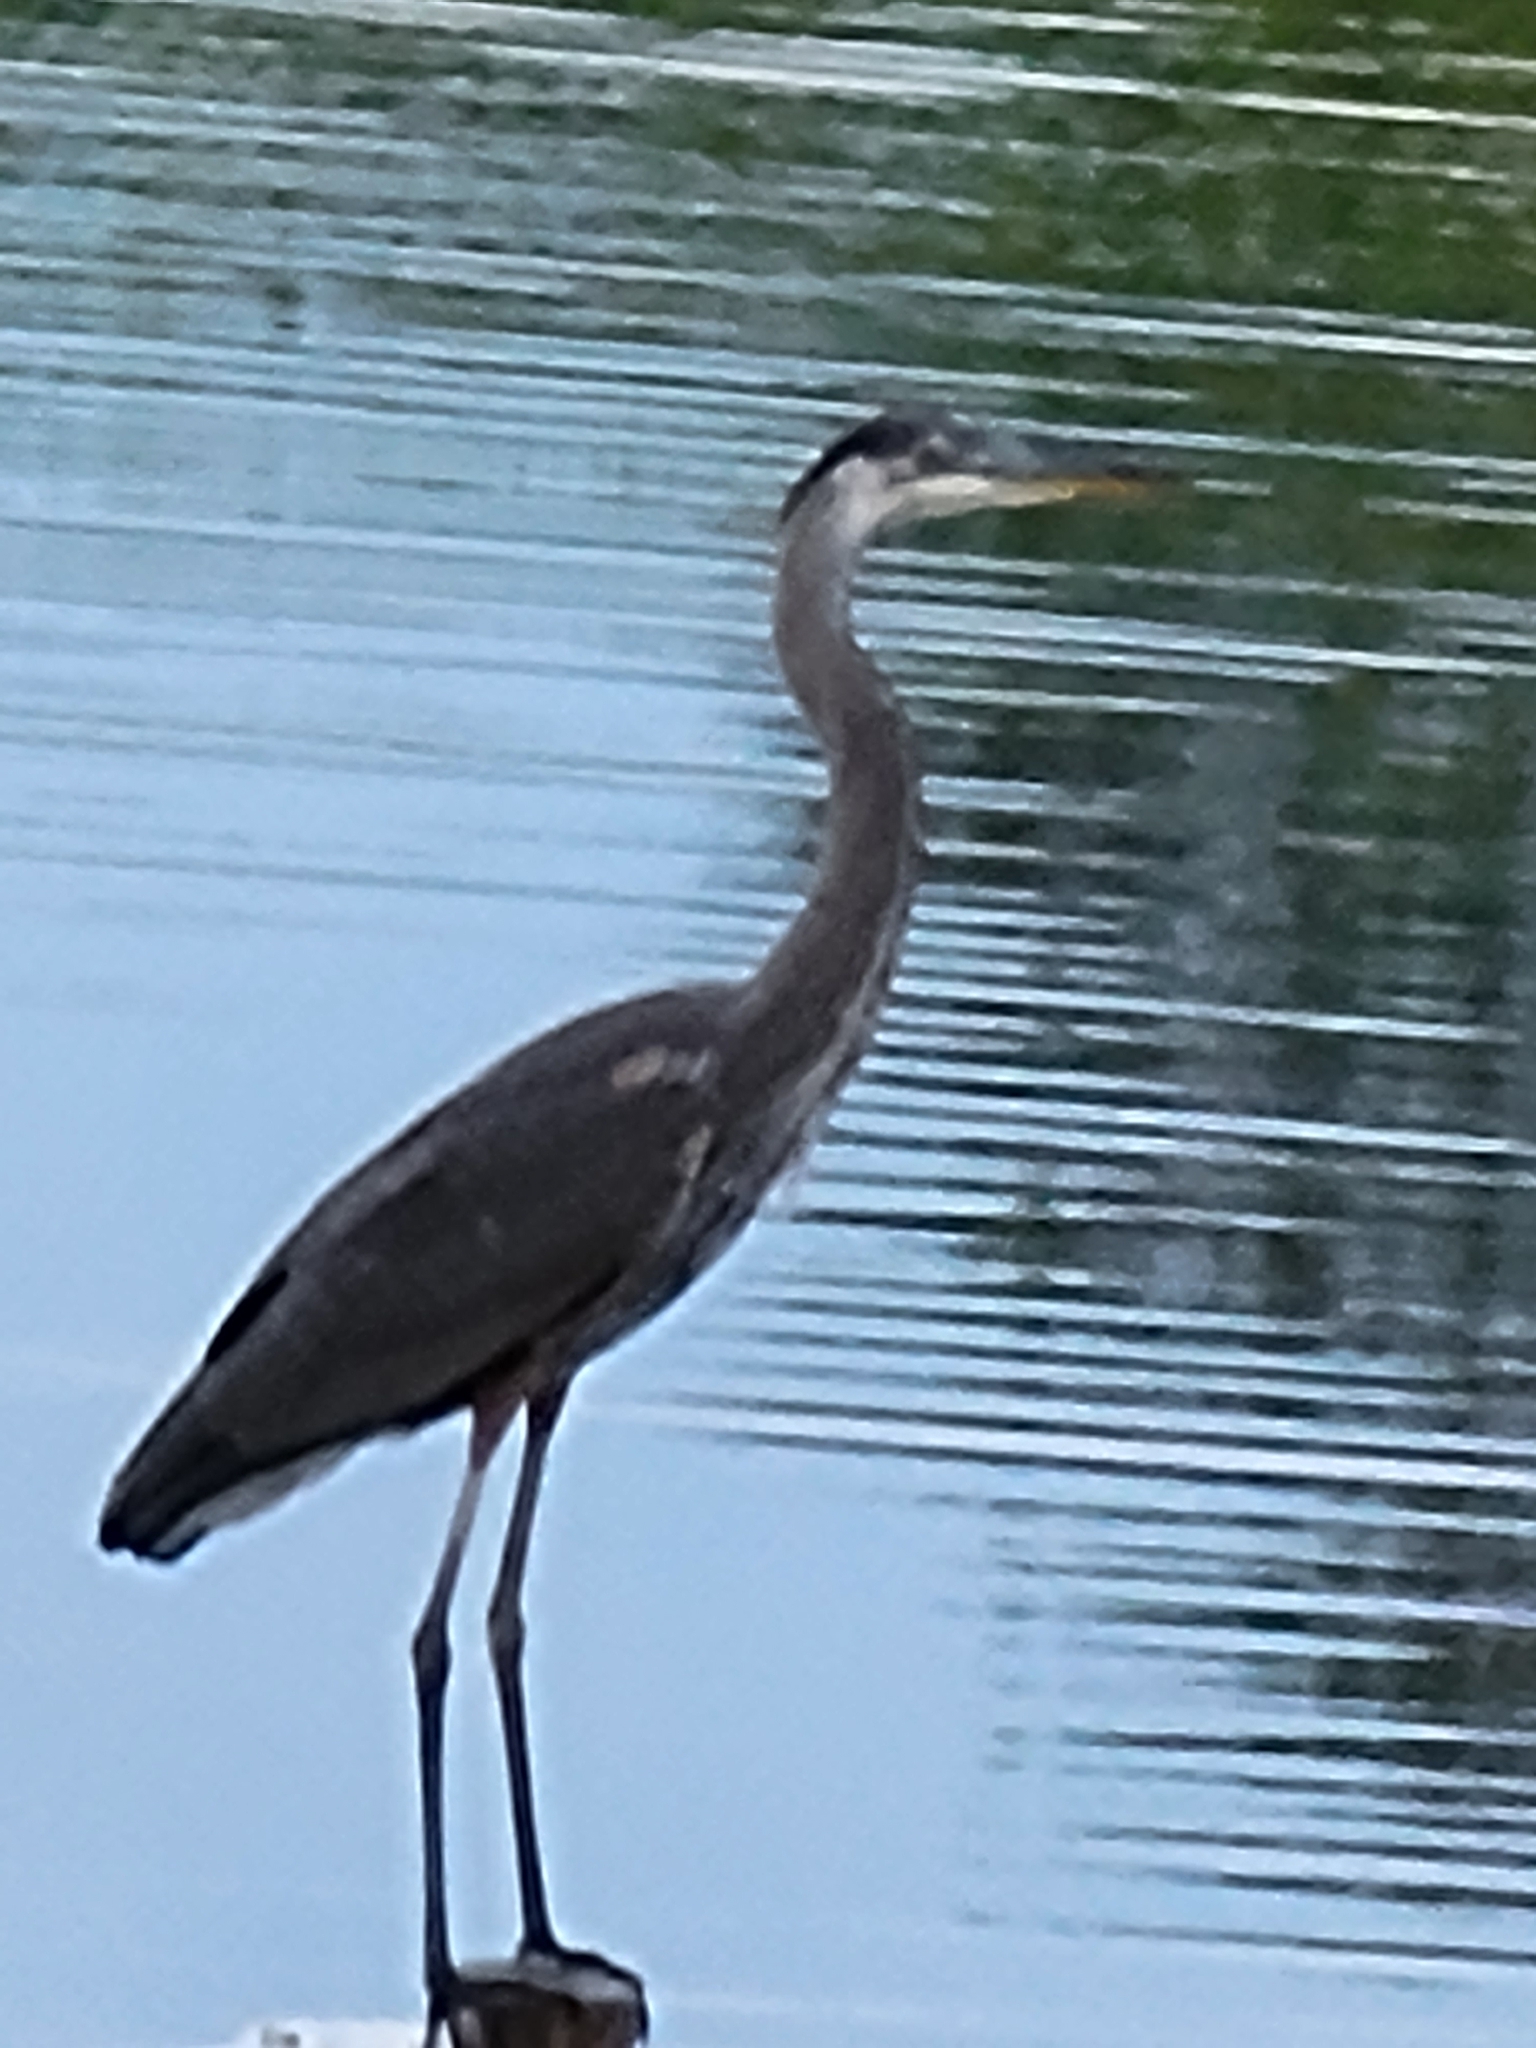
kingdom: Animalia
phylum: Chordata
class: Aves
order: Pelecaniformes
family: Ardeidae
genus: Ardea
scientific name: Ardea herodias
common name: Great blue heron
